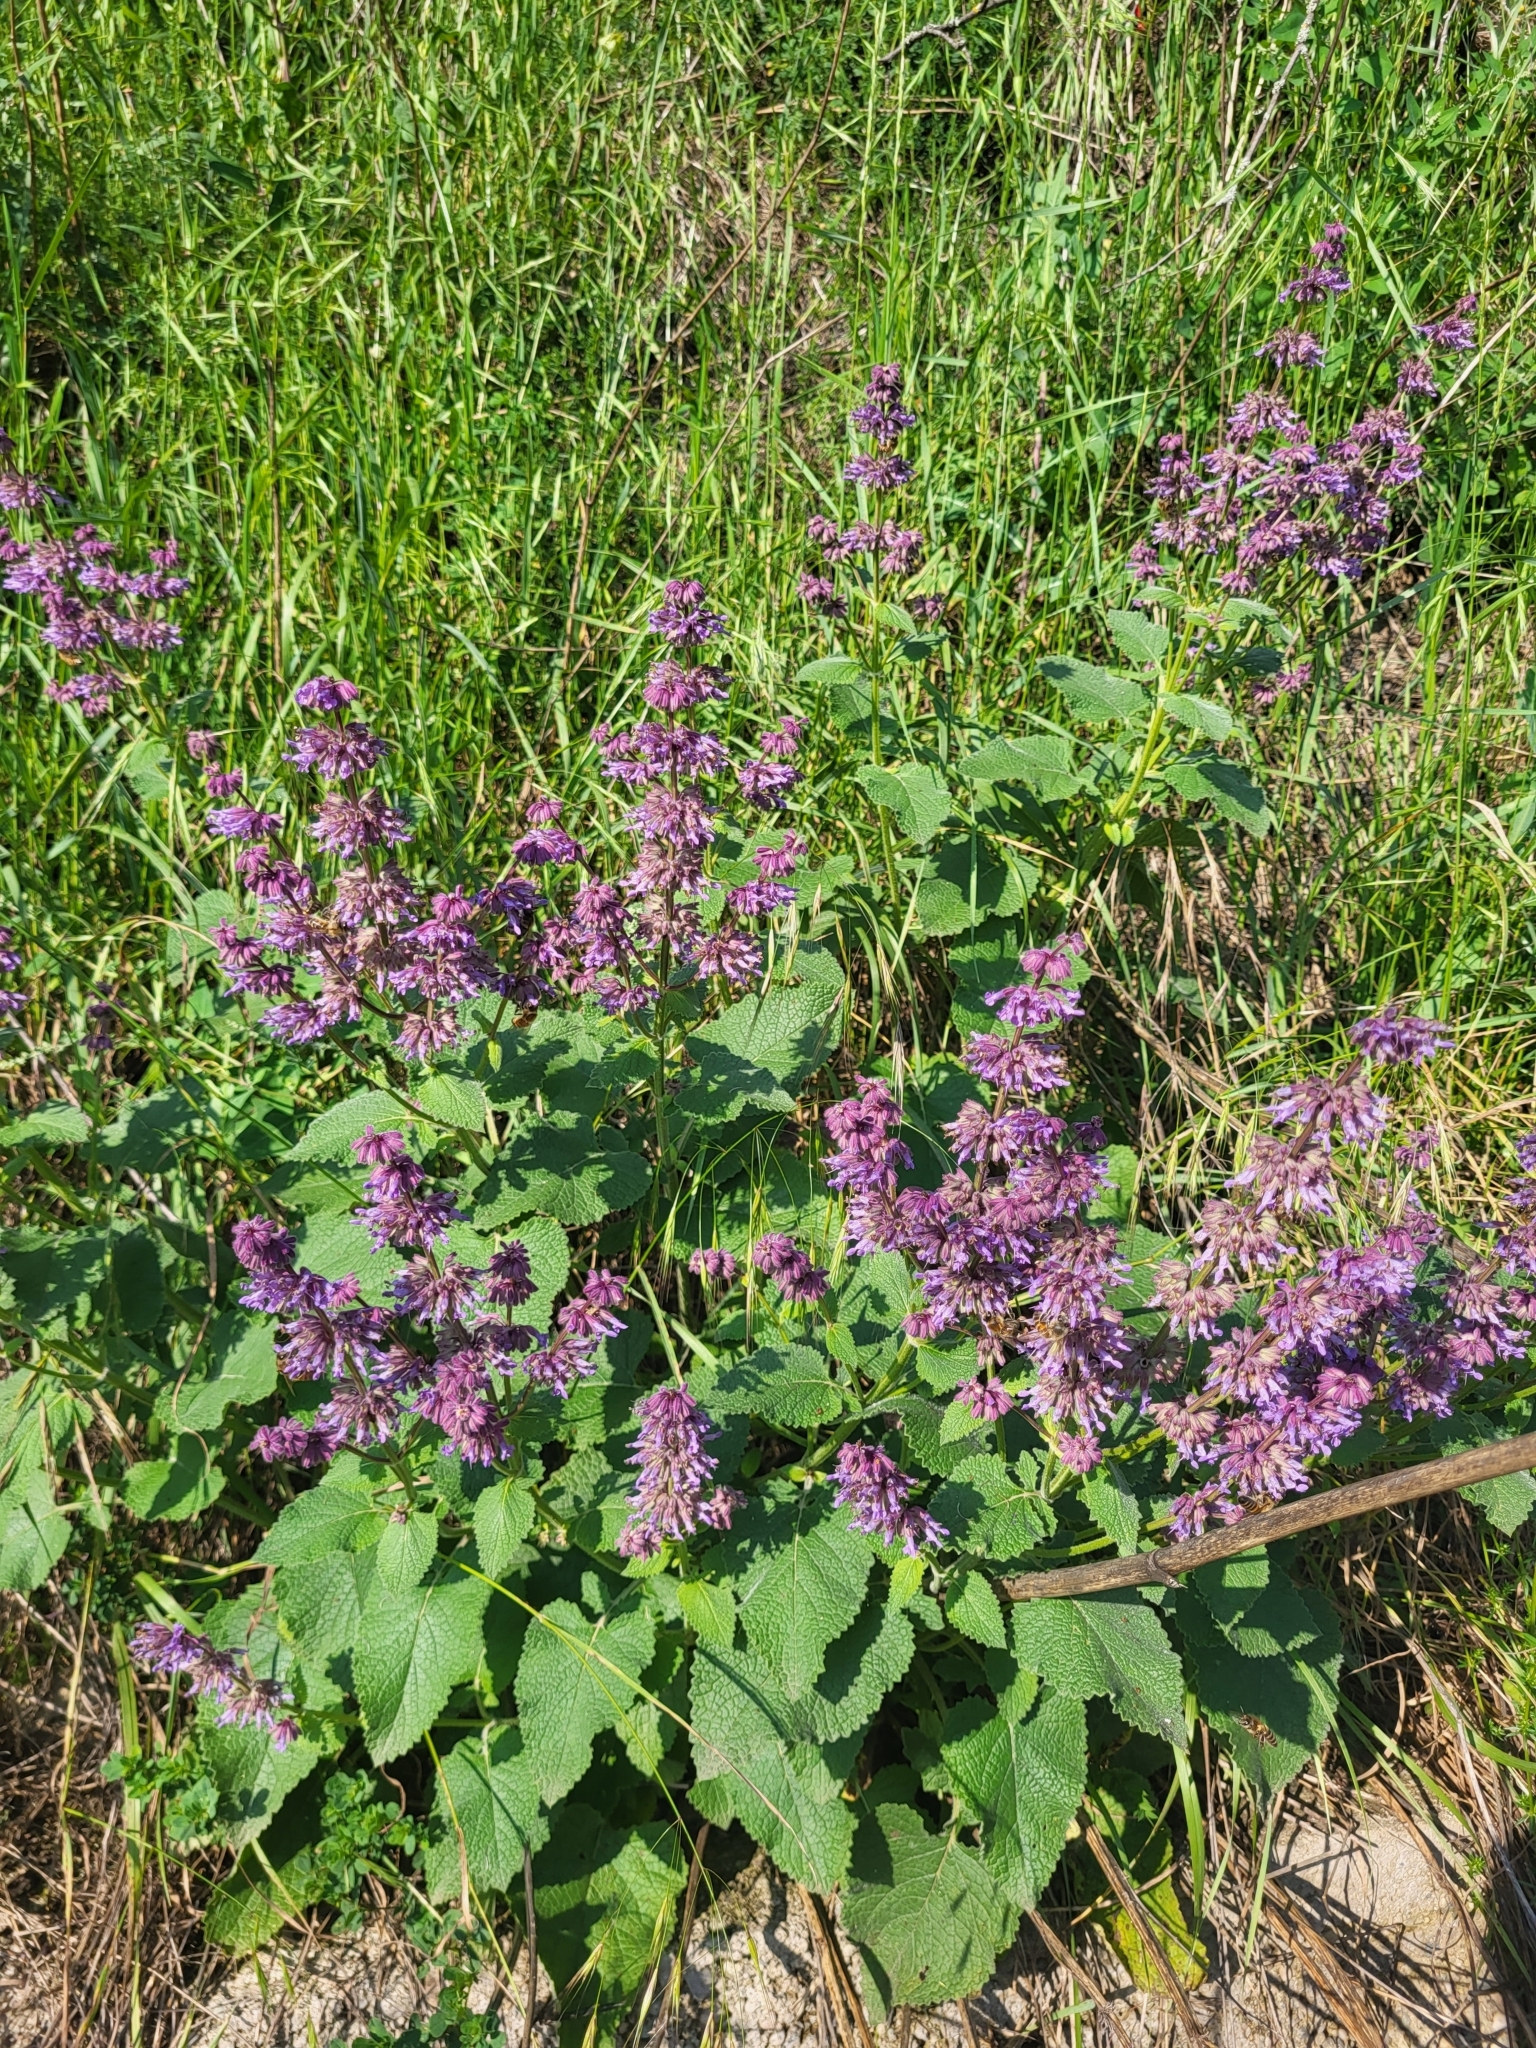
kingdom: Plantae
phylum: Tracheophyta
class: Magnoliopsida
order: Lamiales
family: Lamiaceae
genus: Salvia
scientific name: Salvia verticillata
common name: Whorled clary
